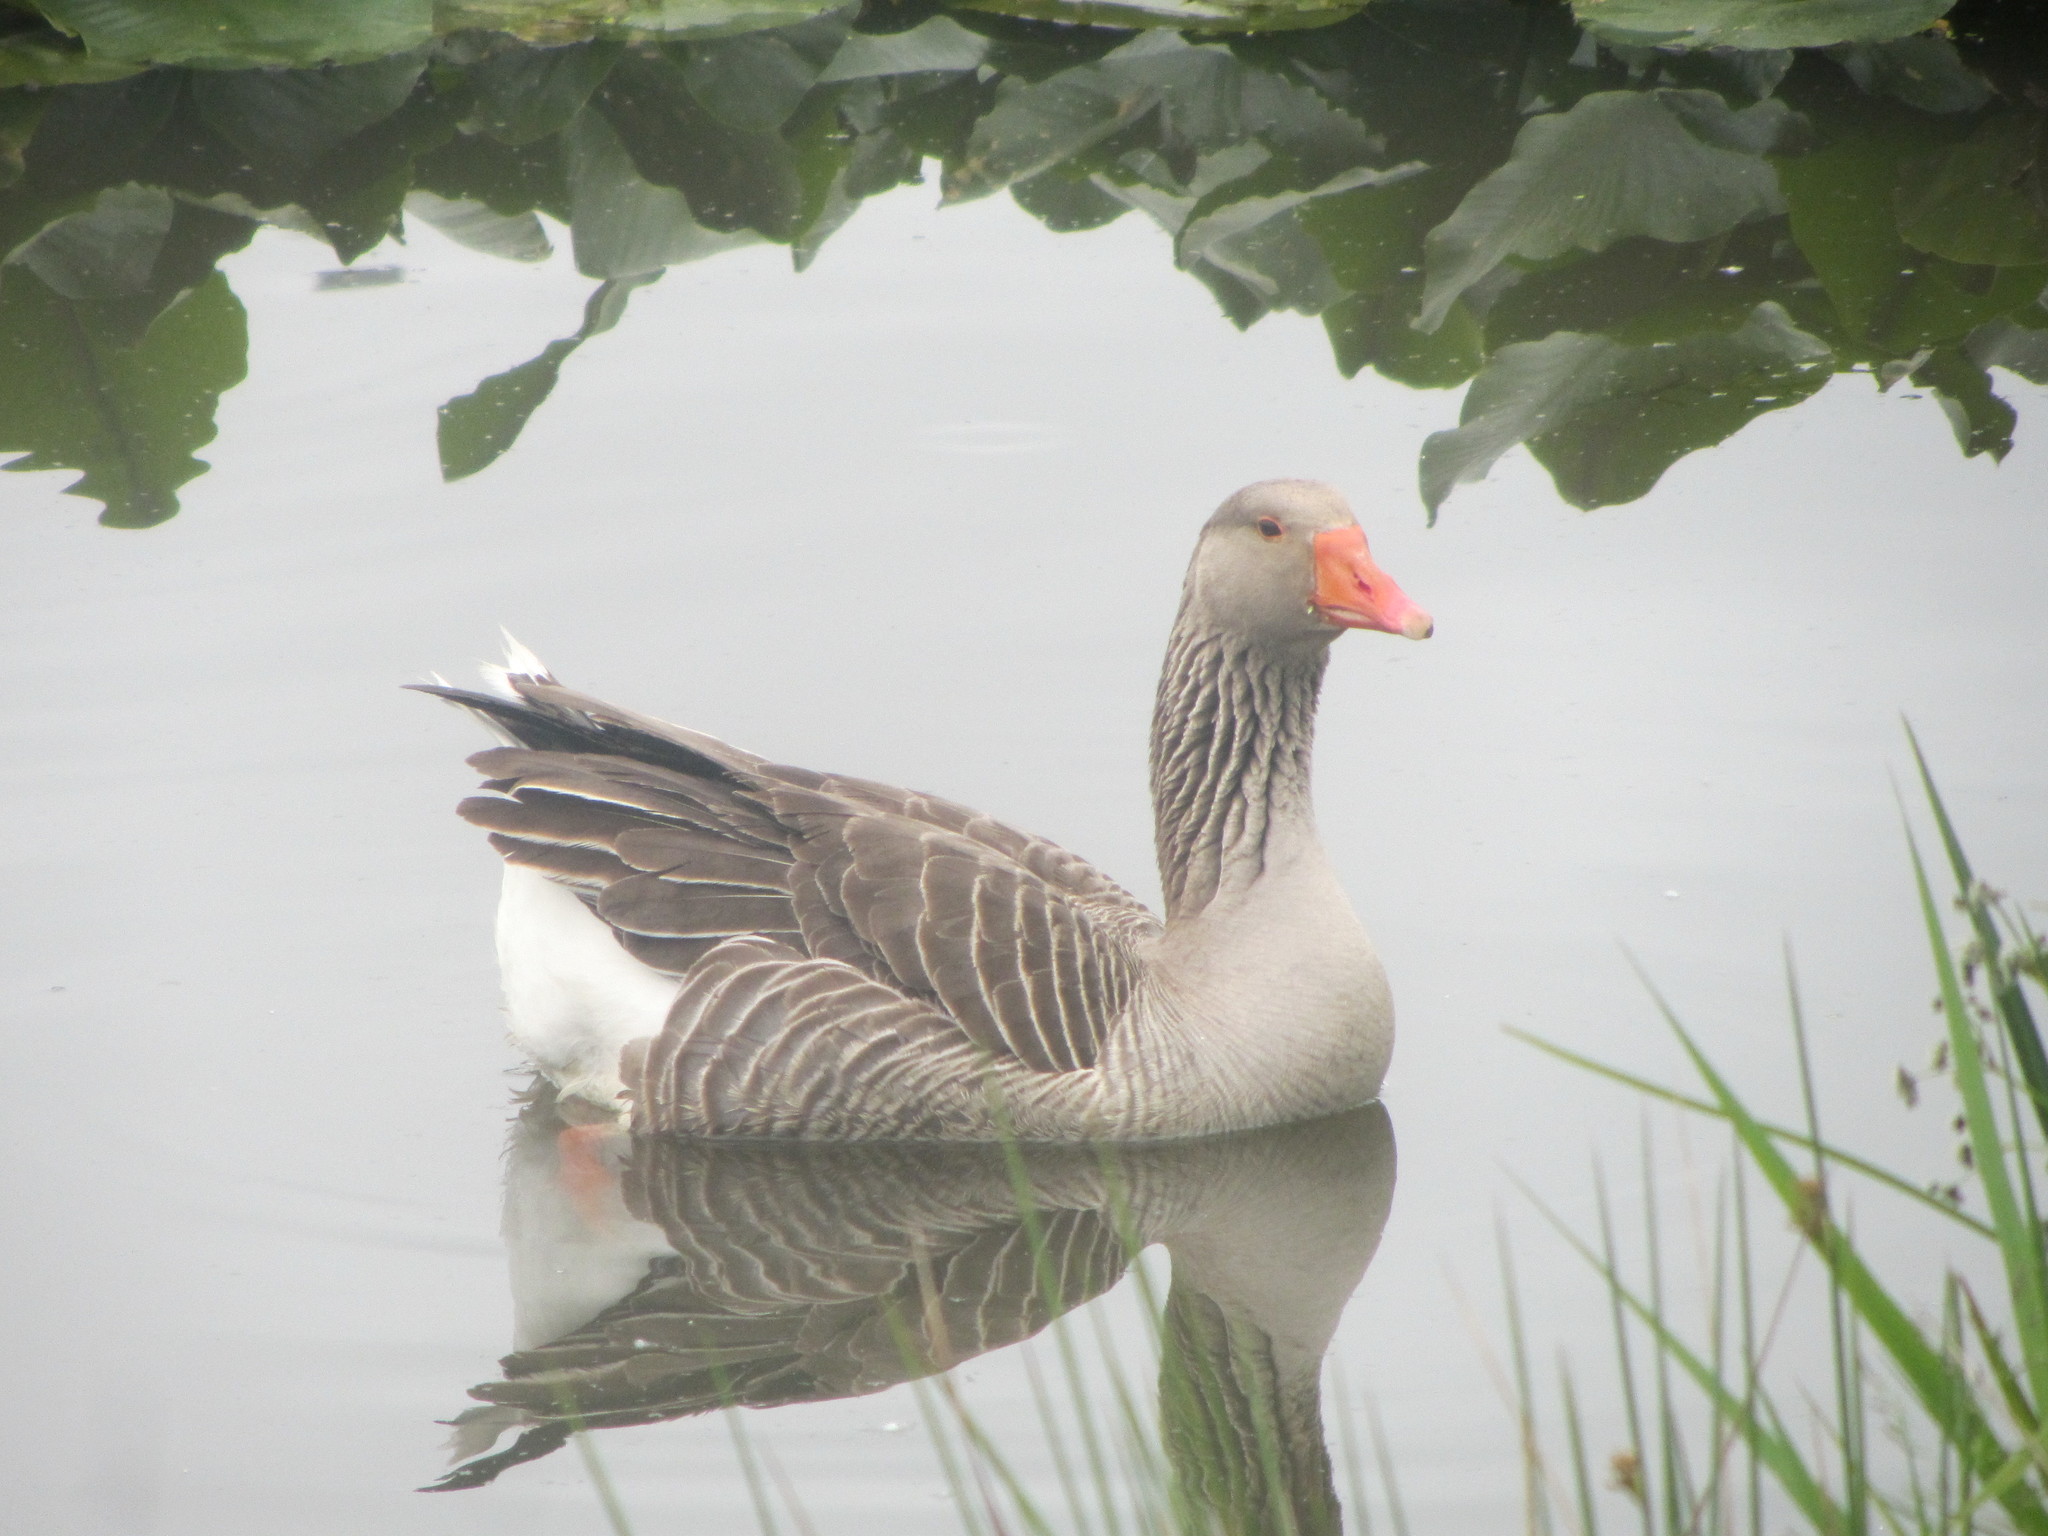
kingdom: Animalia
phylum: Chordata
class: Aves
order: Anseriformes
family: Anatidae
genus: Anser
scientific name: Anser anser
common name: Greylag goose
